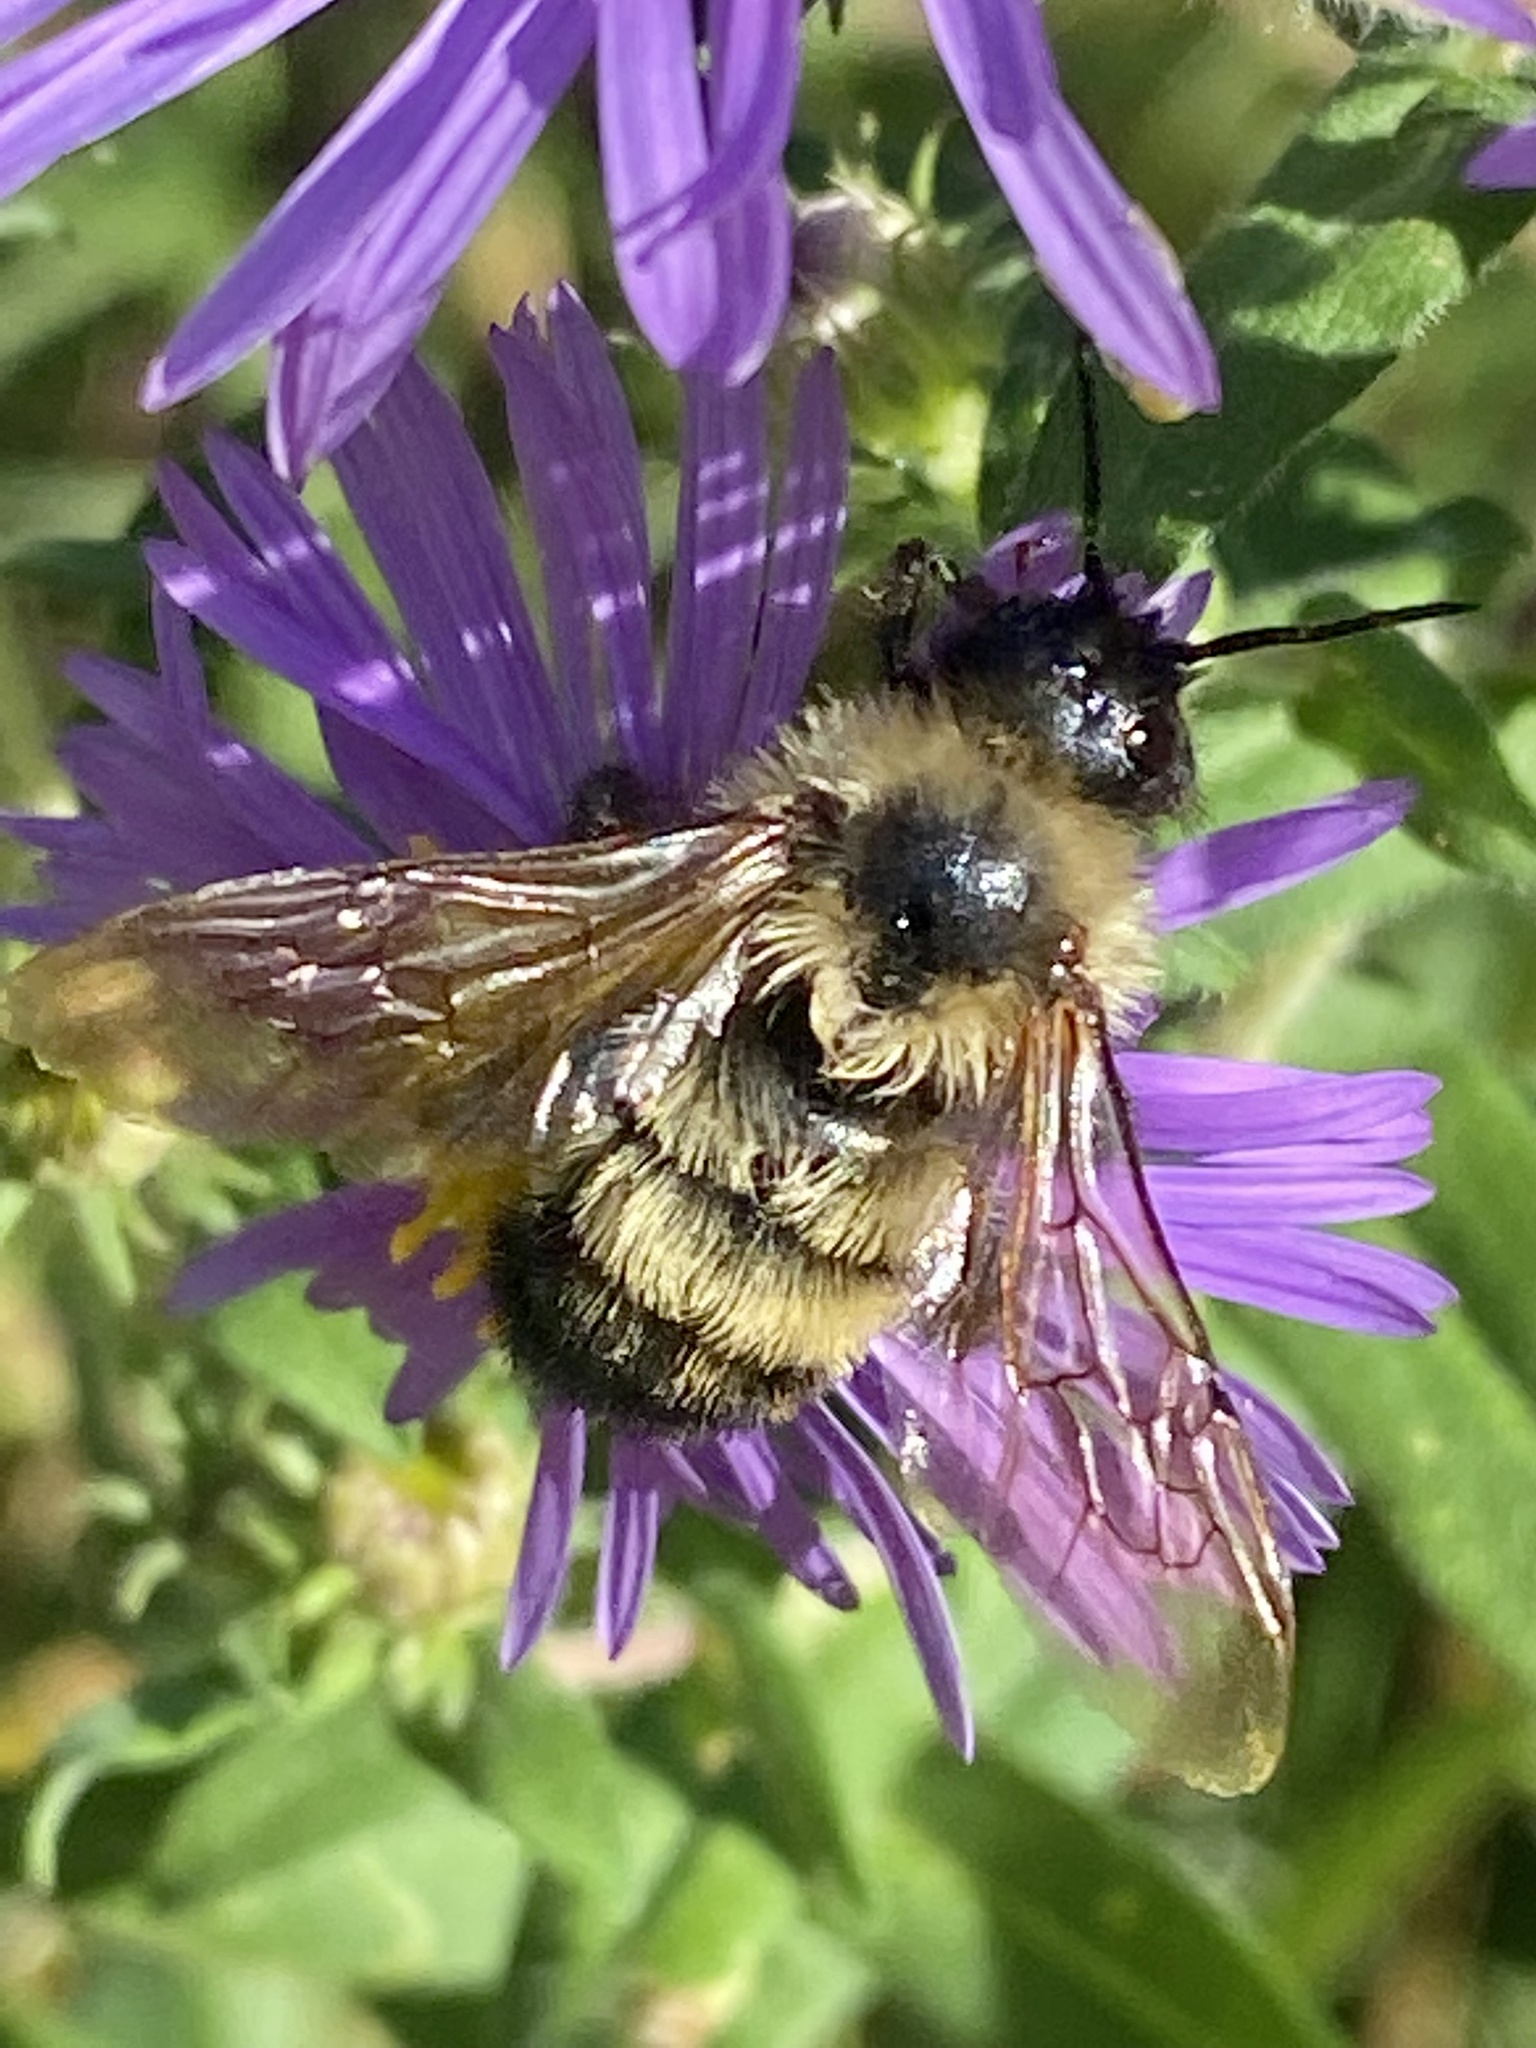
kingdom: Animalia
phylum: Arthropoda
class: Insecta
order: Hymenoptera
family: Apidae
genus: Bombus
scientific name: Bombus citrinus
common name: Lemon cuckoo bumble bee
